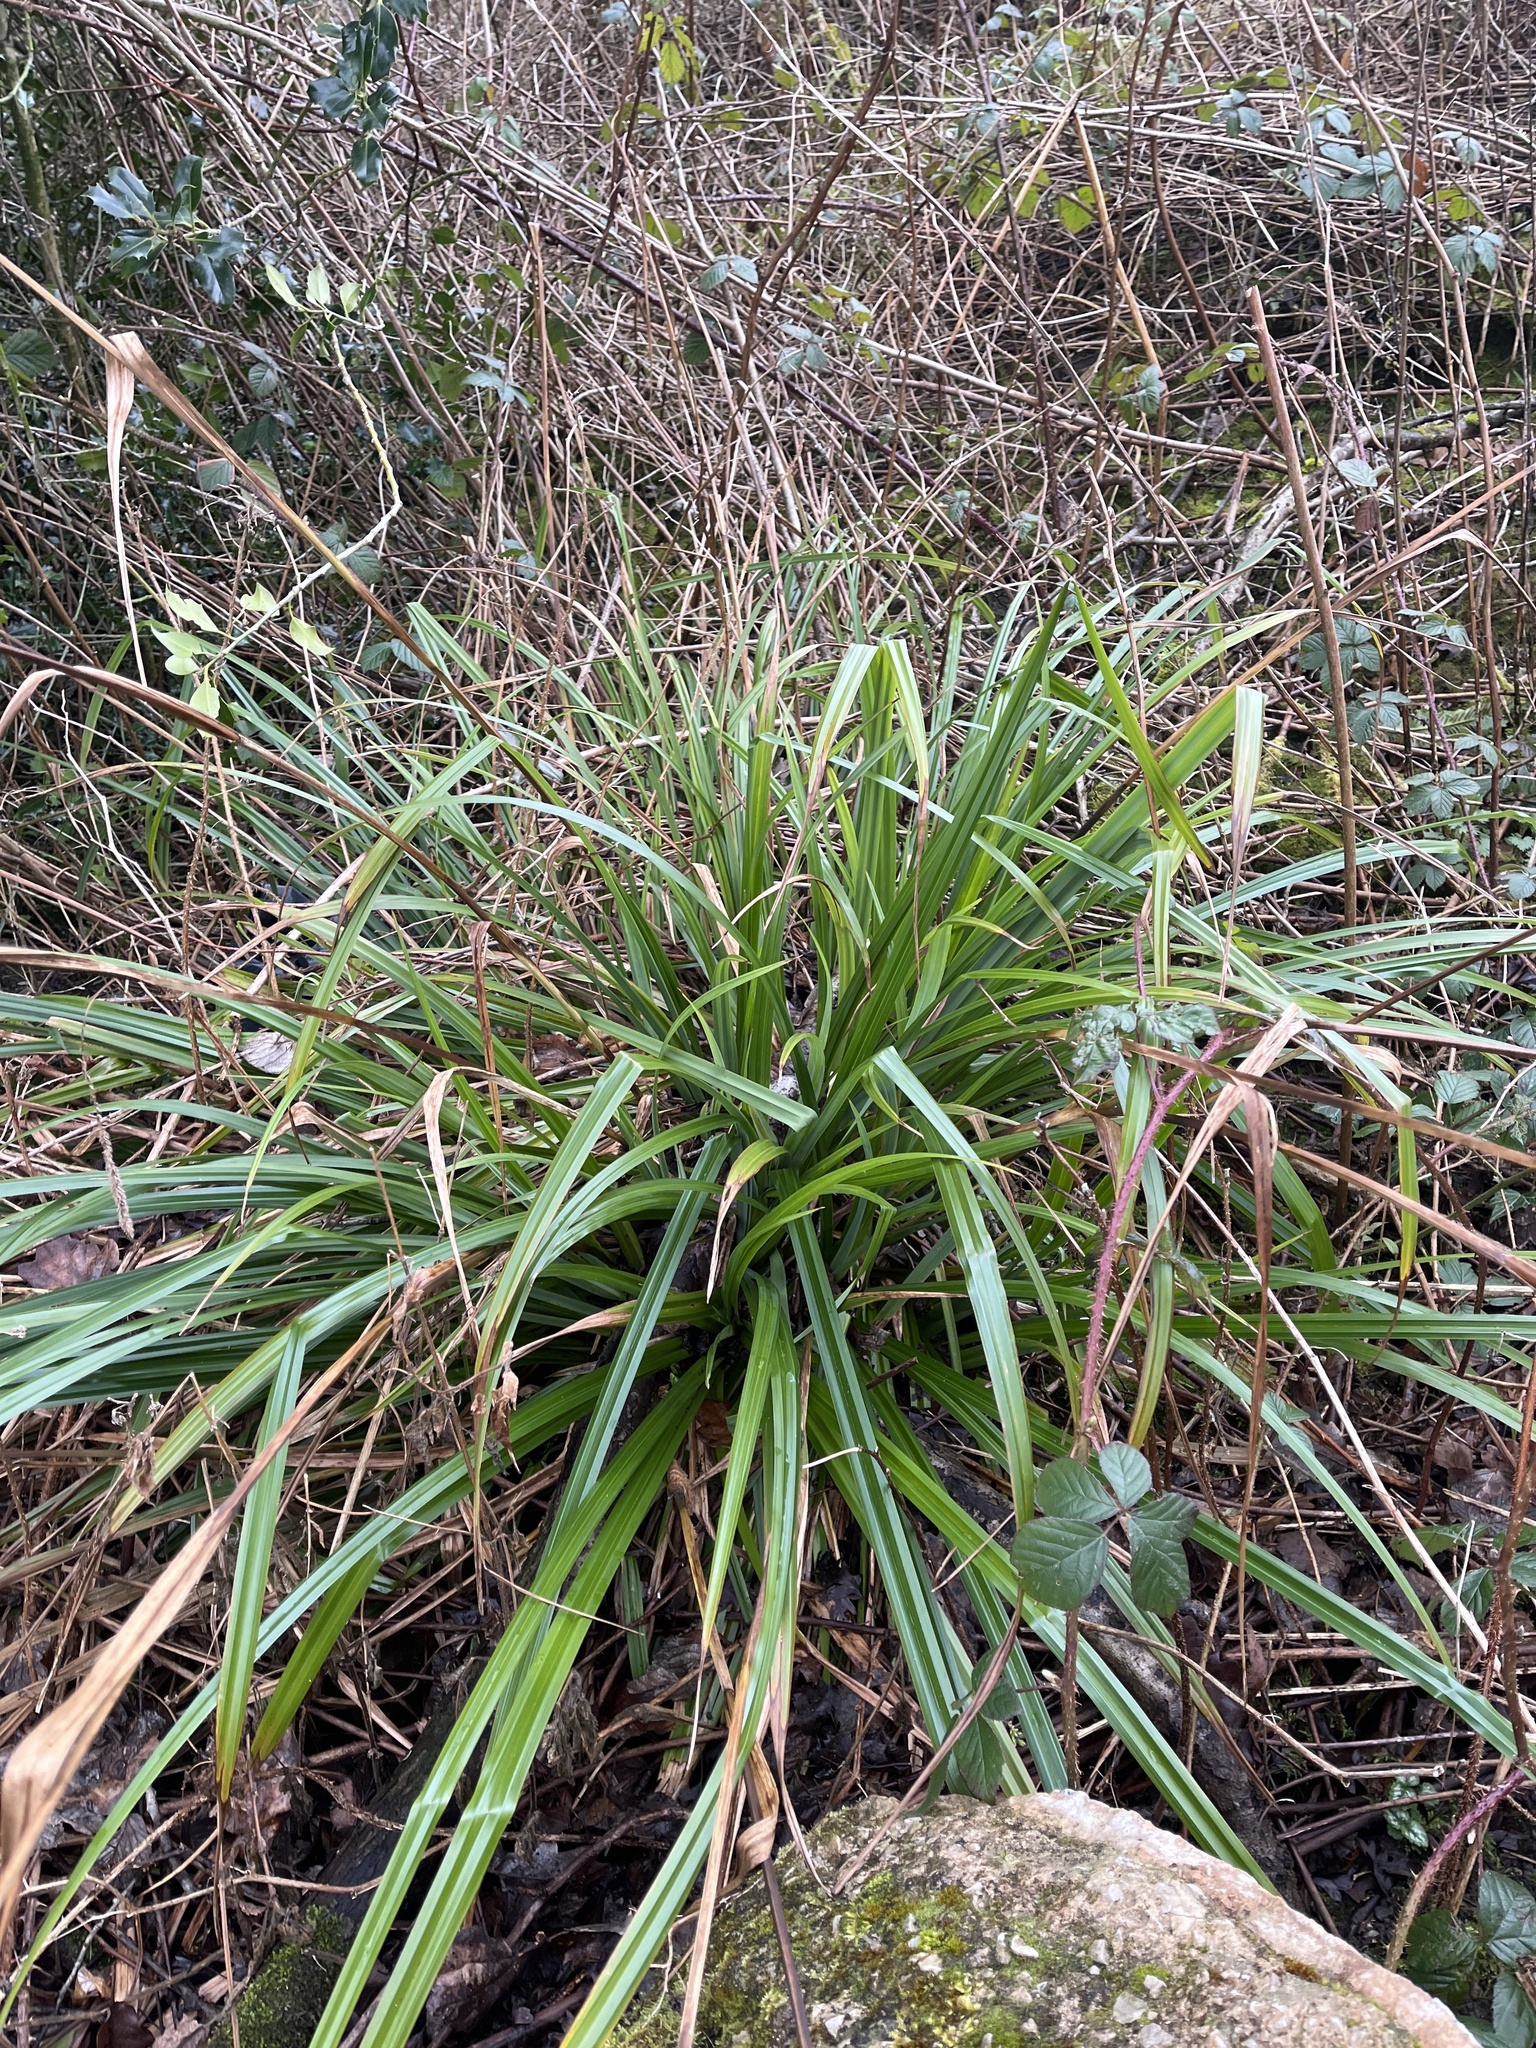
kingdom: Plantae
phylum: Tracheophyta
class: Liliopsida
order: Poales
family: Cyperaceae
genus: Carex
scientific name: Carex pendula
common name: Pendulous sedge
